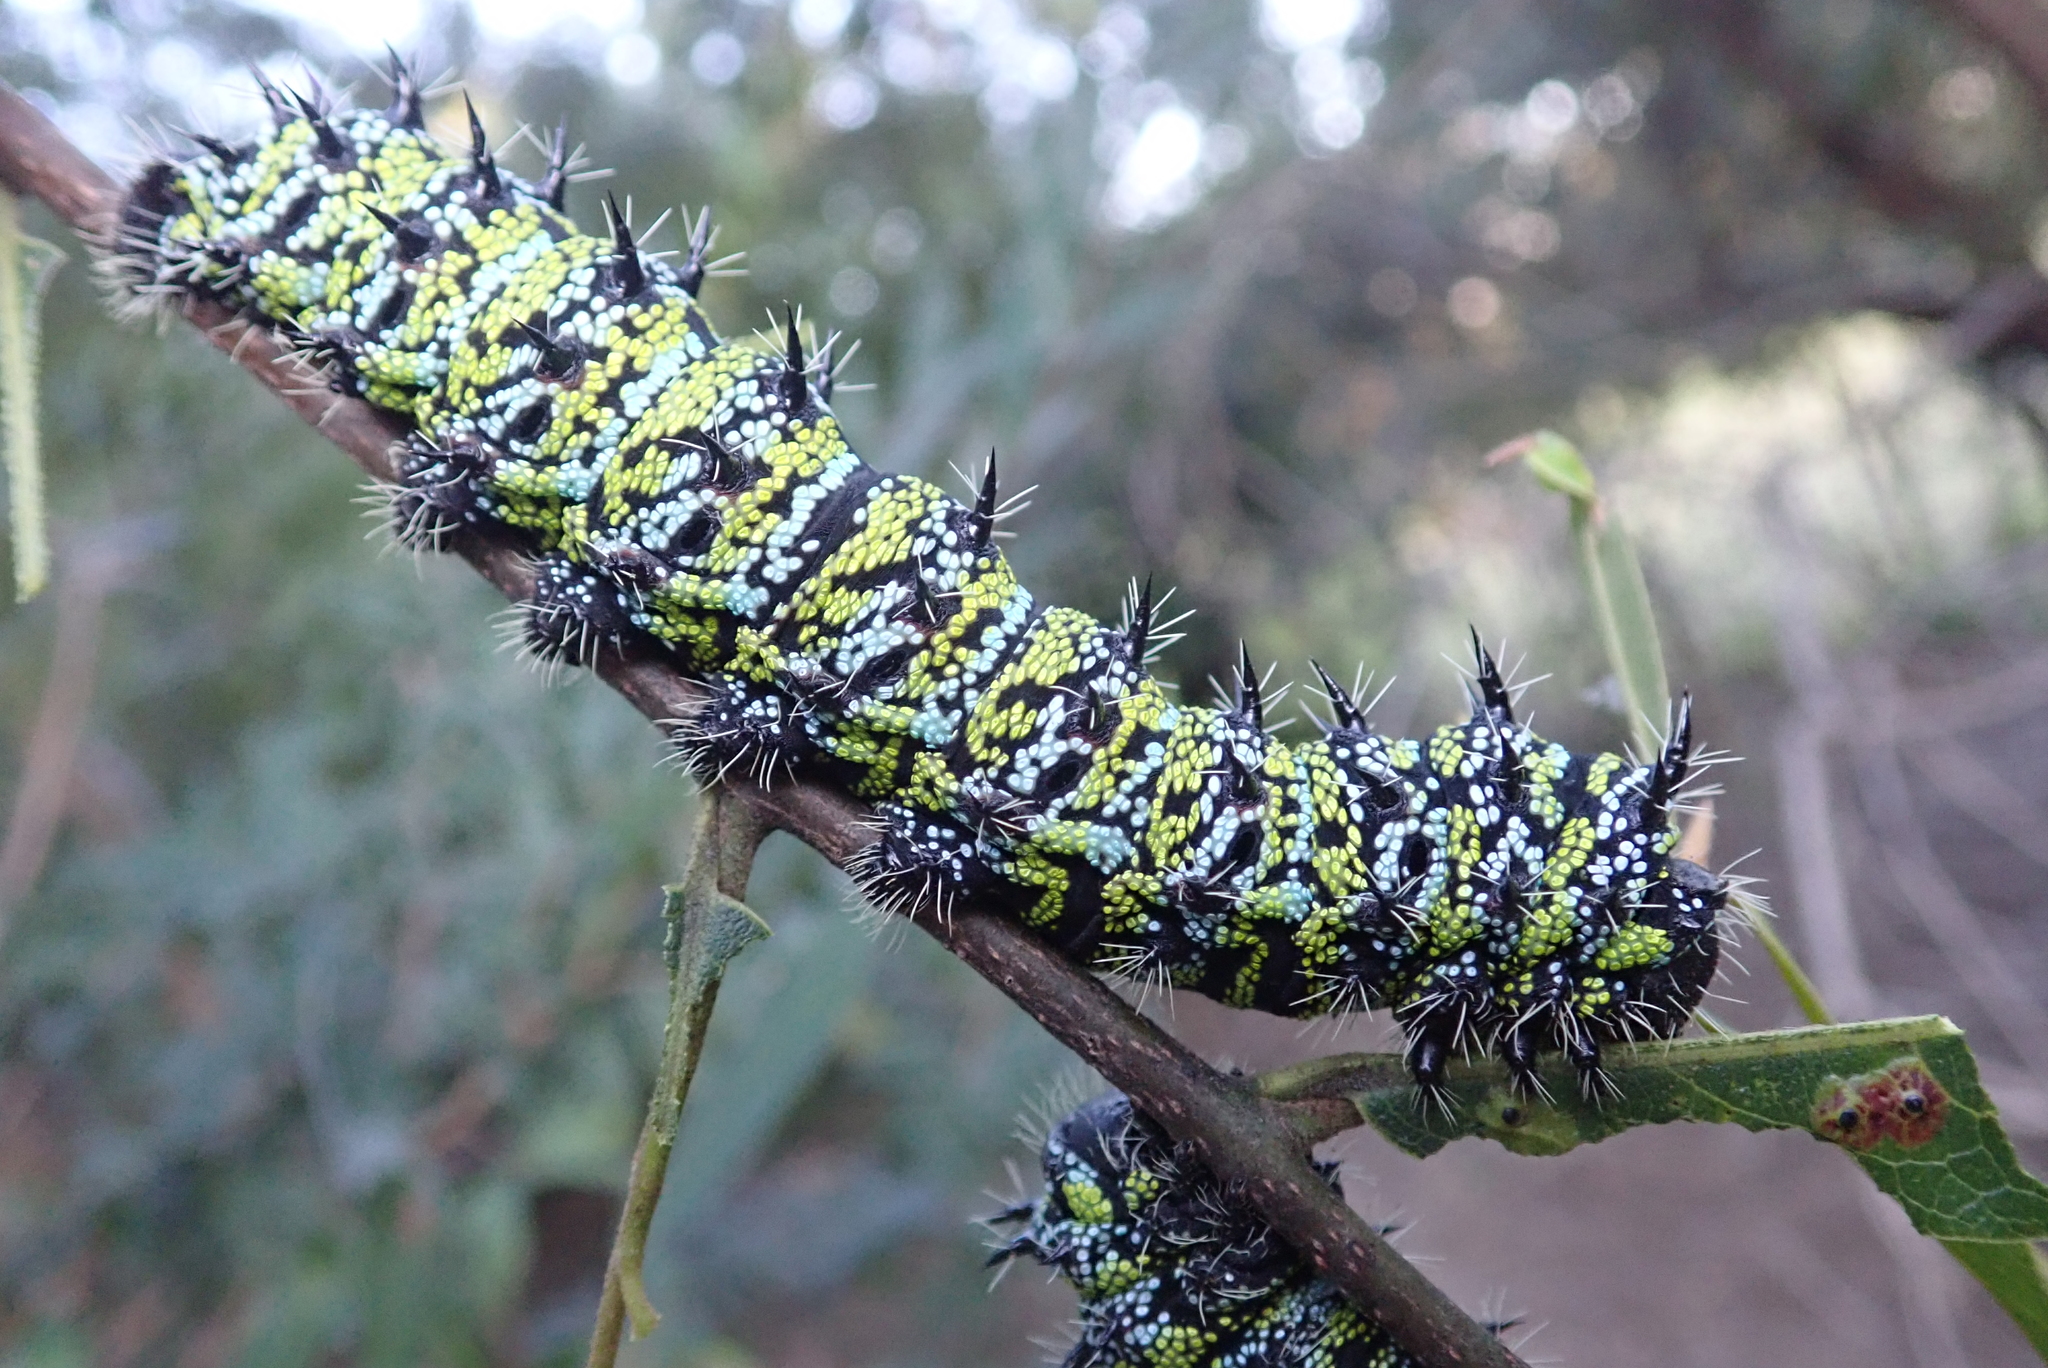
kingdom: Animalia
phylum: Arthropoda
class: Insecta
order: Lepidoptera
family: Saturniidae
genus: Gonimbrasia
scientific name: Gonimbrasia zambesina
